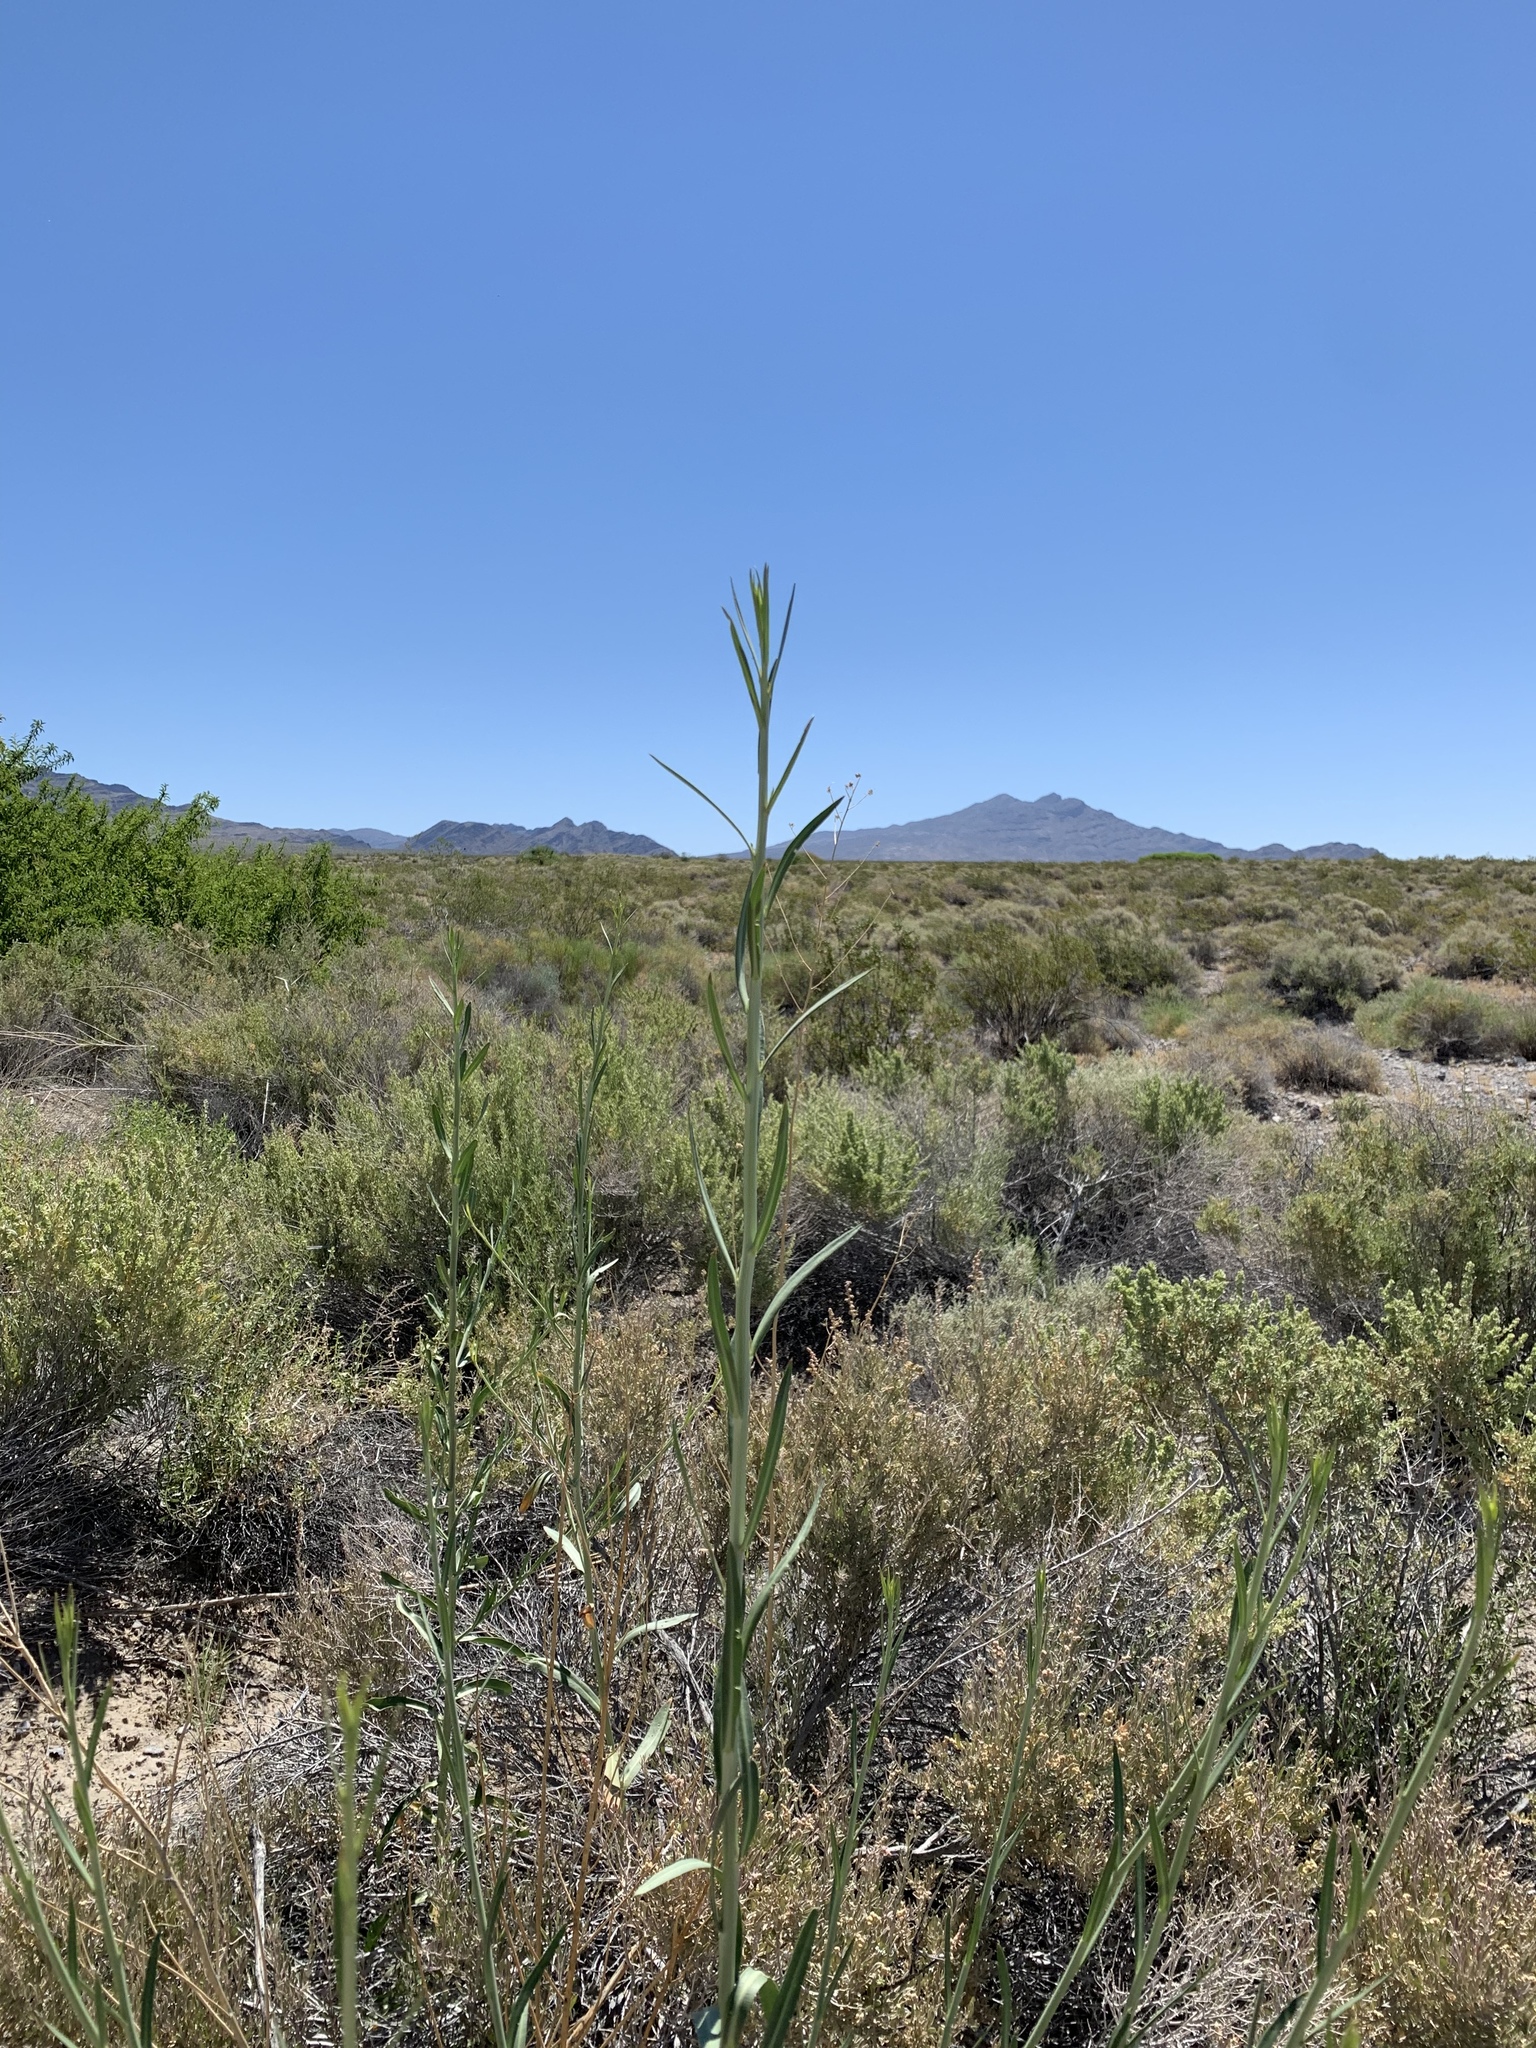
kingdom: Plantae
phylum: Tracheophyta
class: Magnoliopsida
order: Brassicales
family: Brassicaceae
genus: Stanleya
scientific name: Stanleya pinnata
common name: Prince's-plume
